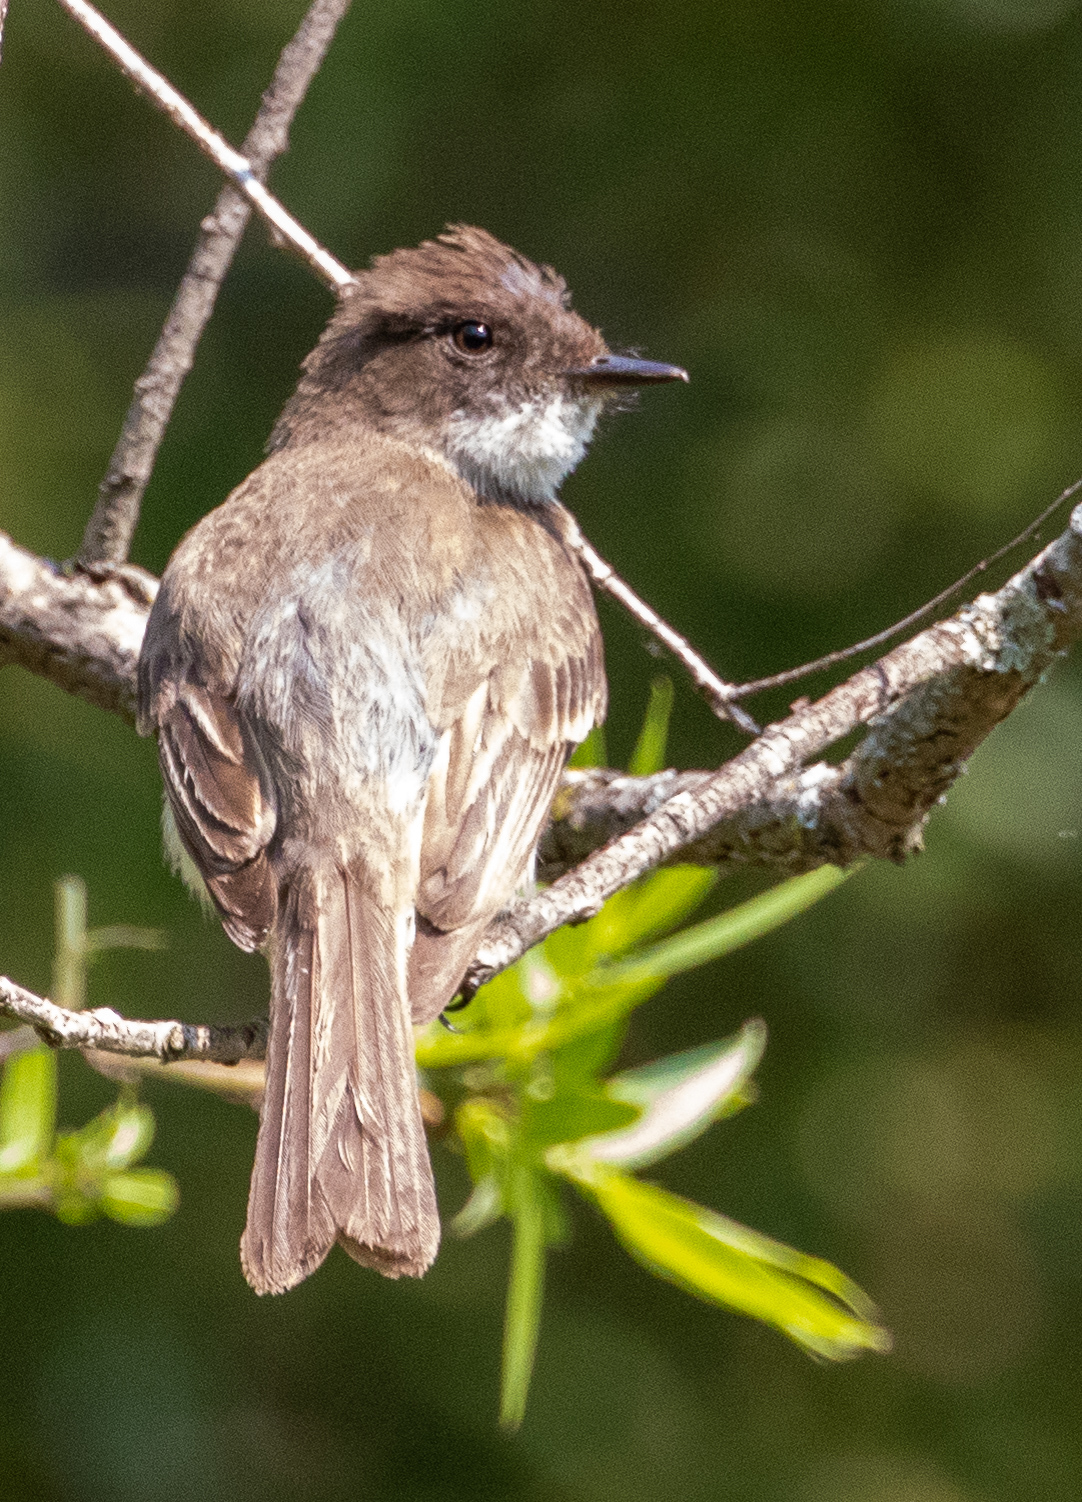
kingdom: Animalia
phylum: Chordata
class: Aves
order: Passeriformes
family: Tyrannidae
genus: Sayornis
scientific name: Sayornis phoebe
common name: Eastern phoebe
